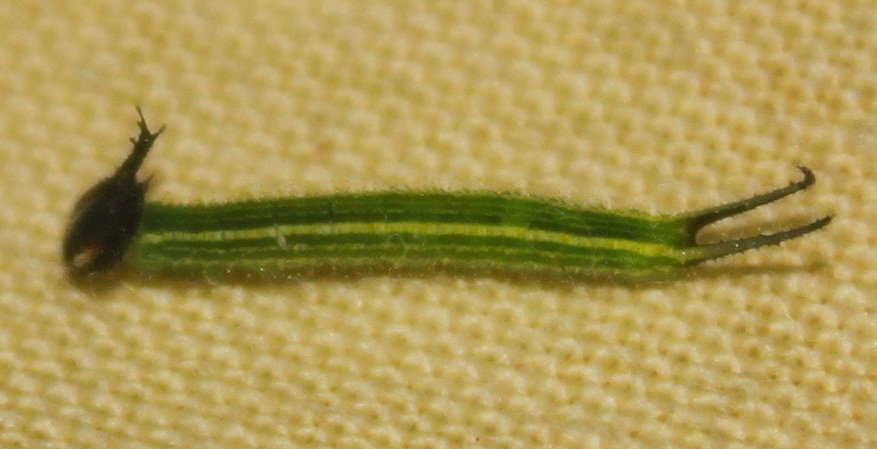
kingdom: Animalia
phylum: Arthropoda
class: Insecta
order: Lepidoptera
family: Nymphalidae
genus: Elymnias
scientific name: Elymnias hypermnestra
